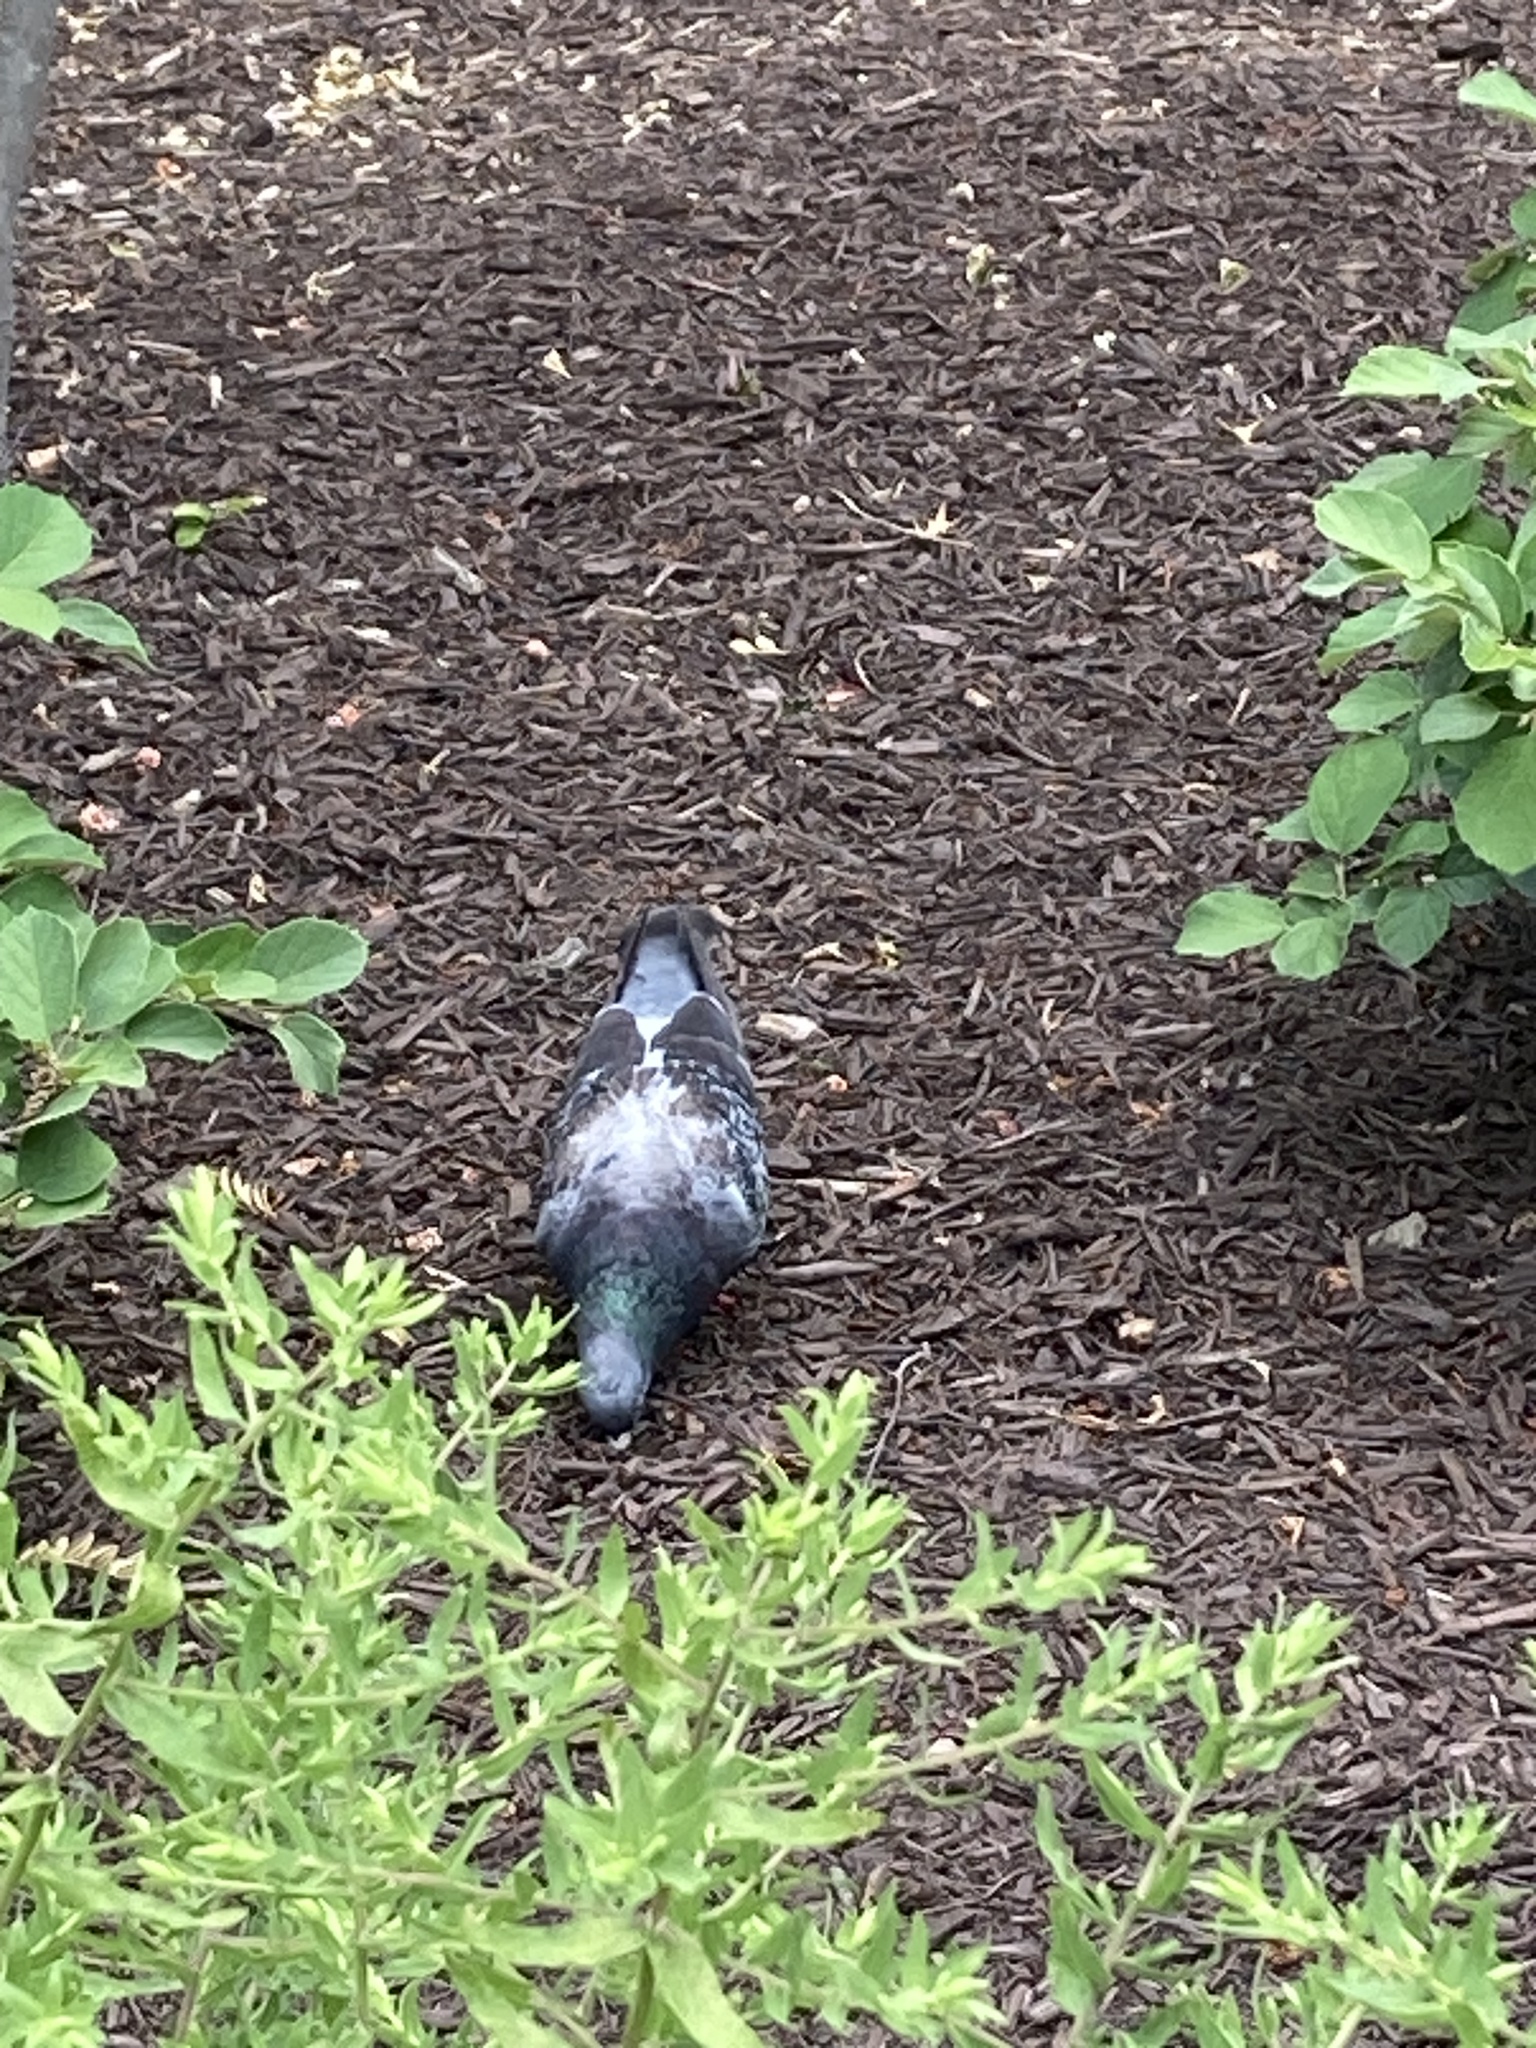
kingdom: Animalia
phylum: Chordata
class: Aves
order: Columbiformes
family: Columbidae
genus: Columba
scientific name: Columba livia
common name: Rock pigeon
